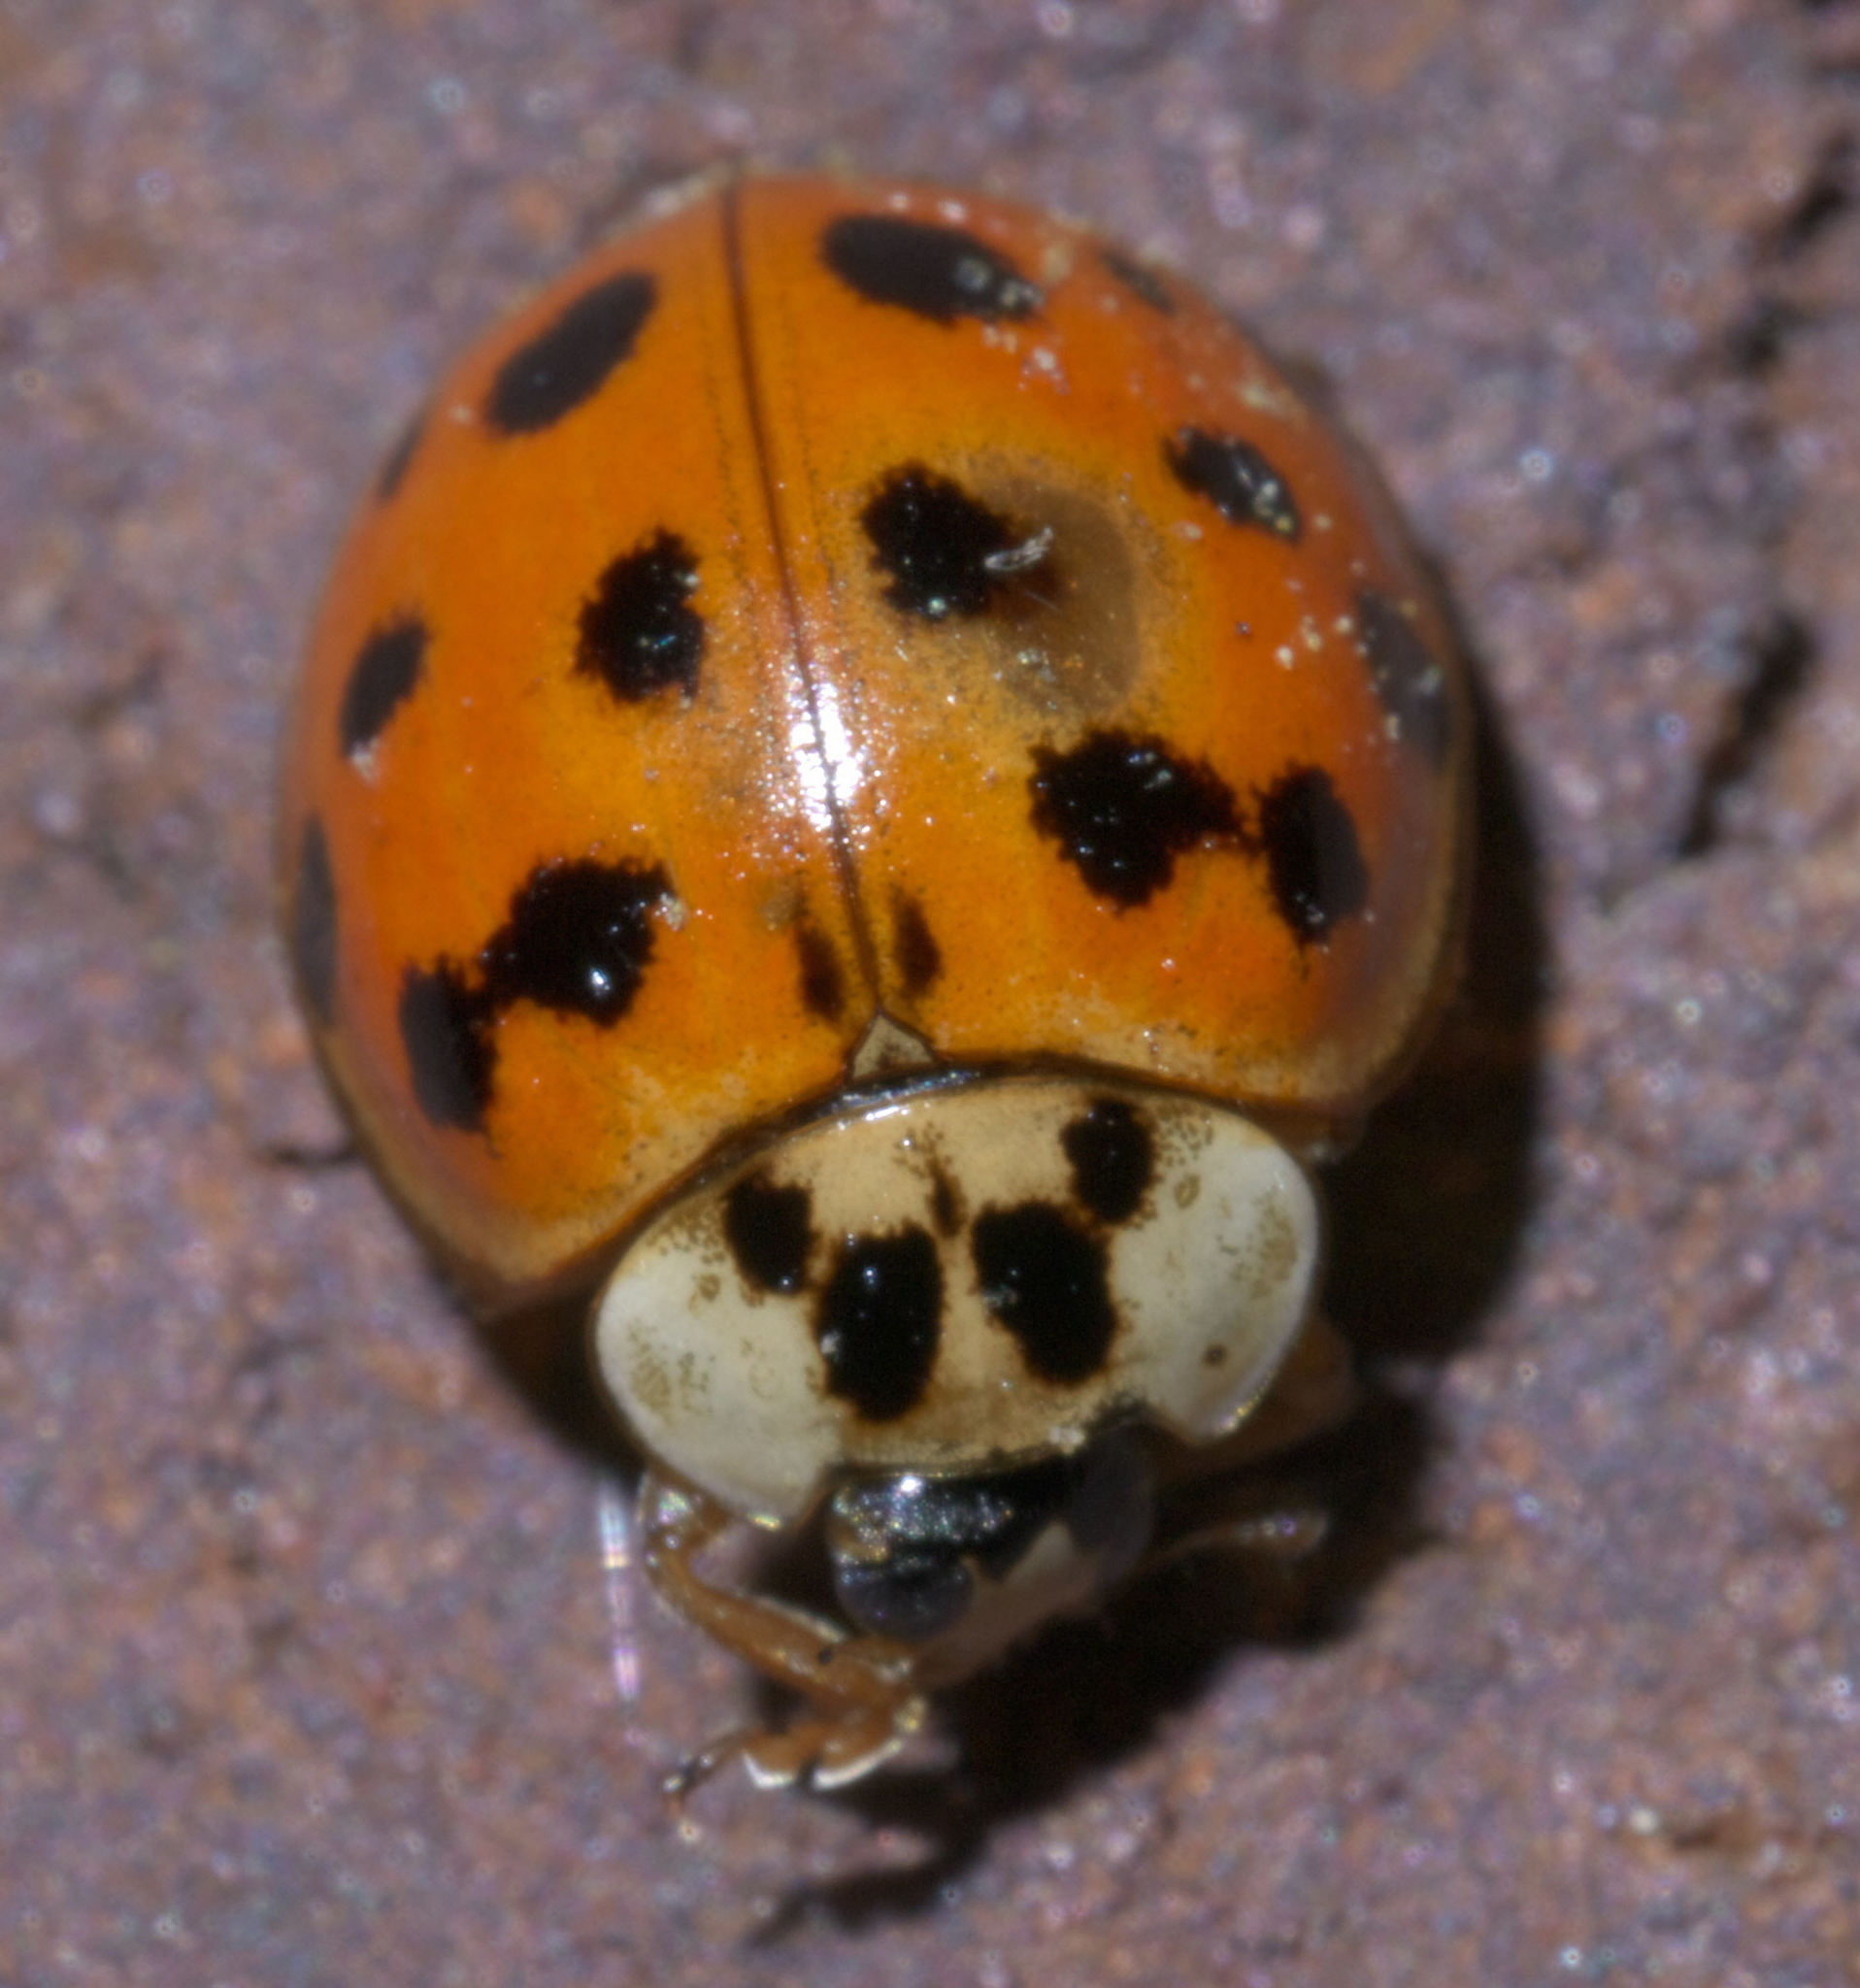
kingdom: Animalia
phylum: Arthropoda
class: Insecta
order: Coleoptera
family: Coccinellidae
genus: Harmonia
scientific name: Harmonia axyridis
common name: Harlequin ladybird
